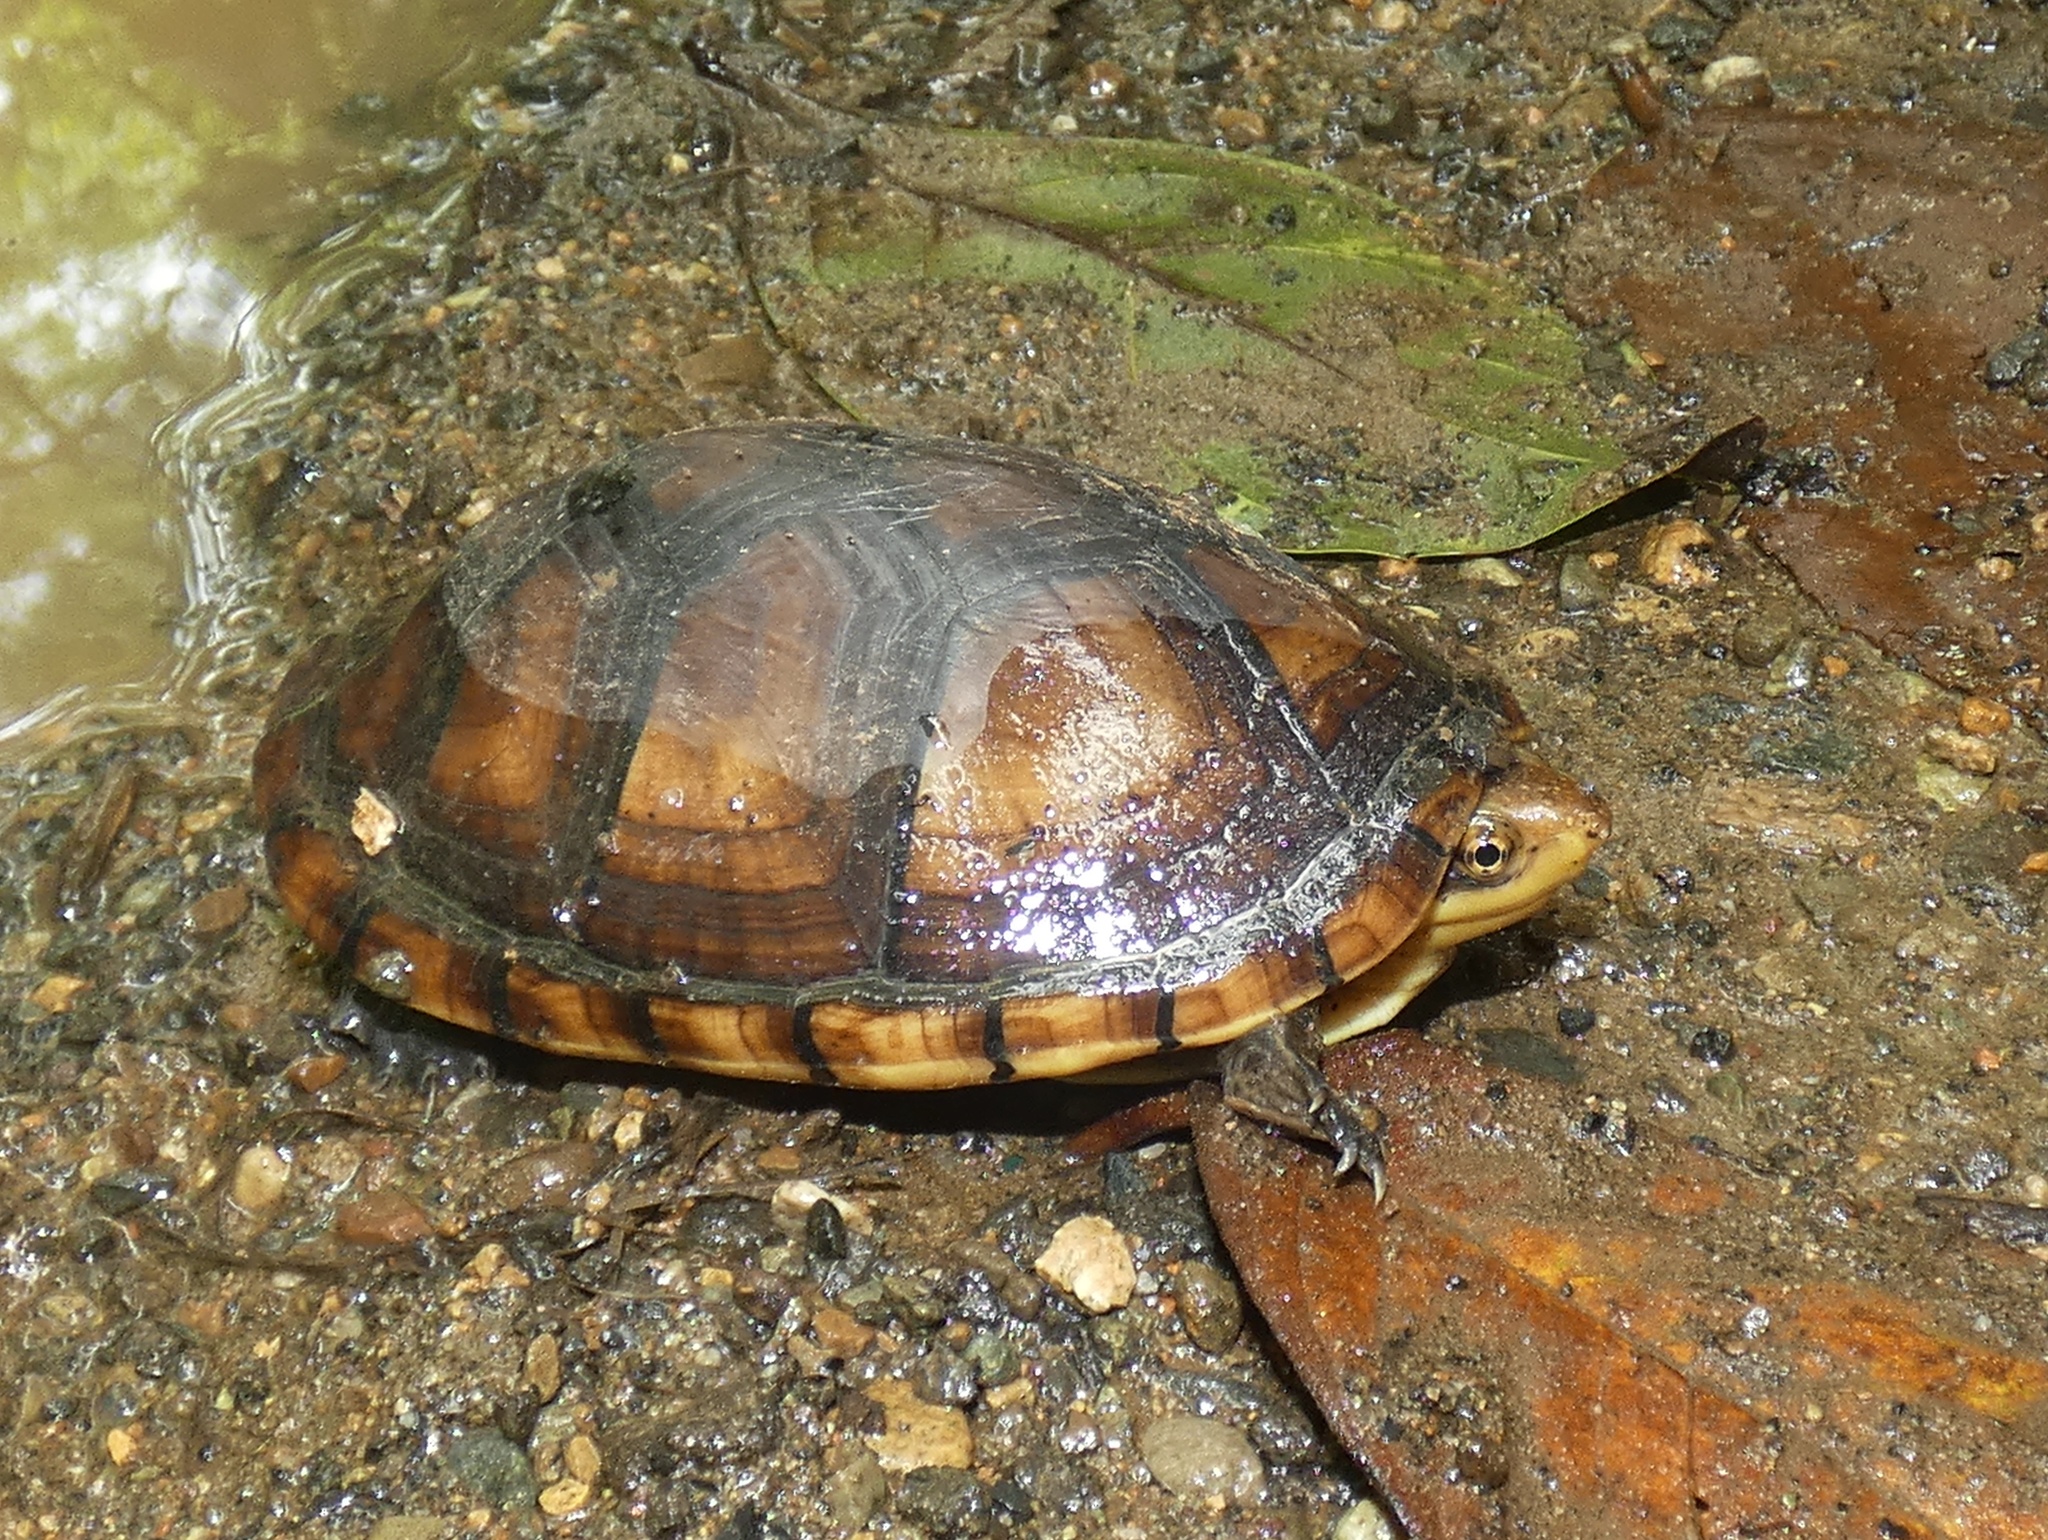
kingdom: Animalia
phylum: Chordata
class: Testudines
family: Kinosternidae
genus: Kinosternon
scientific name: Kinosternon leucostomum
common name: White-lipped mud turtle
